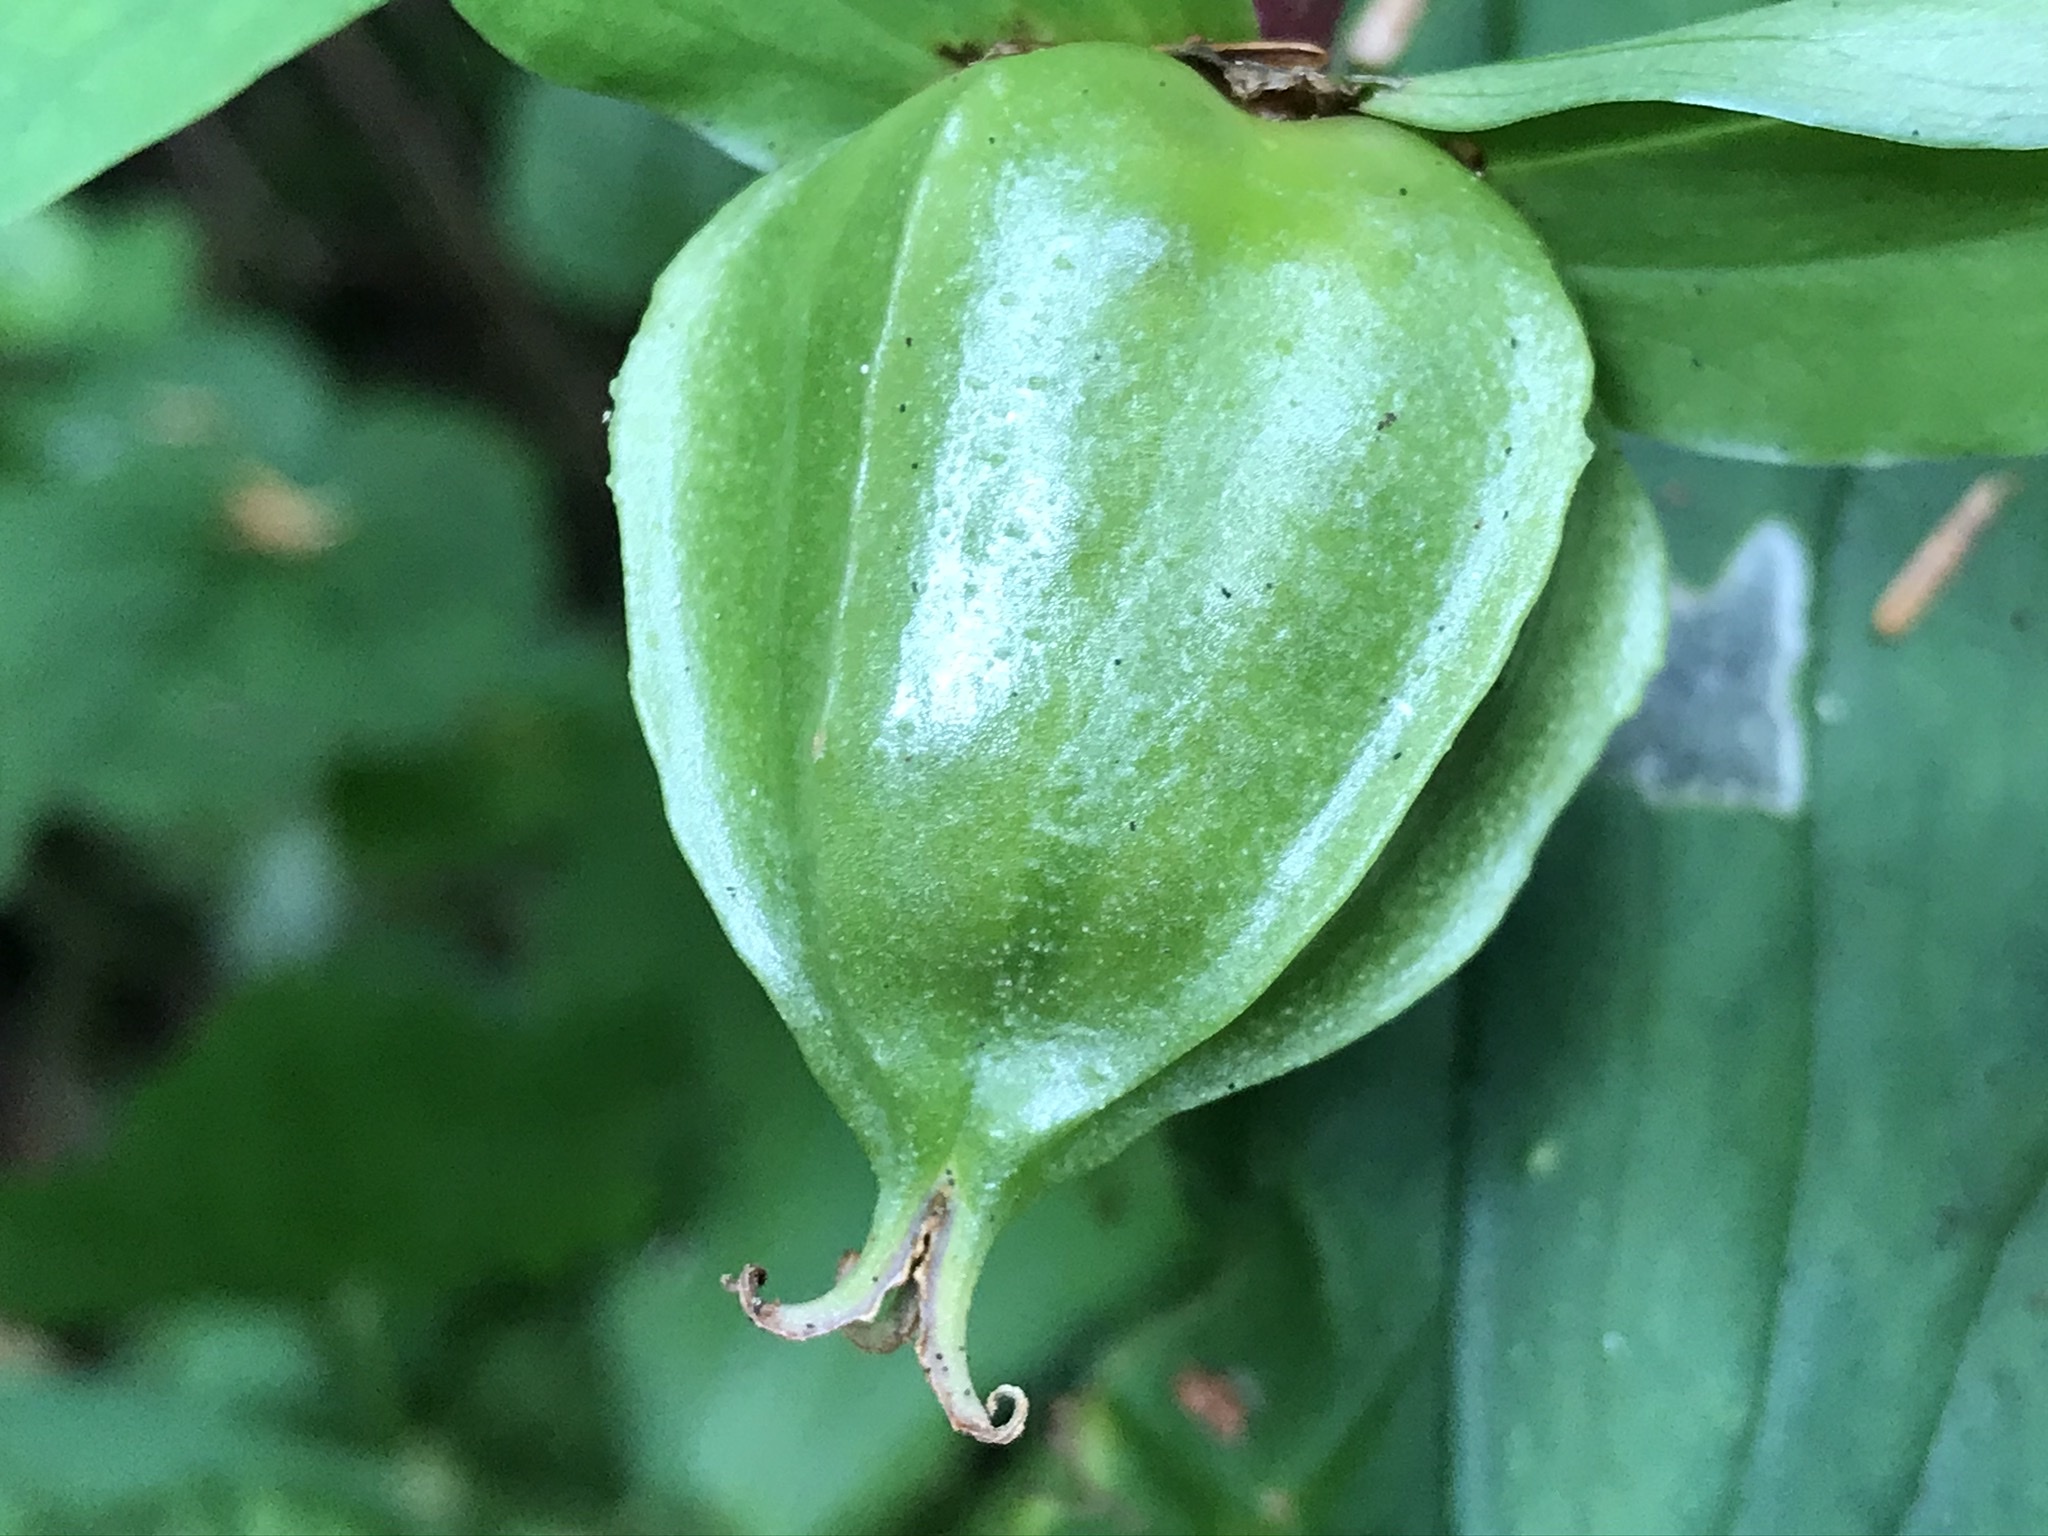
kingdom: Plantae
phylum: Tracheophyta
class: Liliopsida
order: Liliales
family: Melanthiaceae
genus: Trillium
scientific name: Trillium ovatum
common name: Pacific trillium
